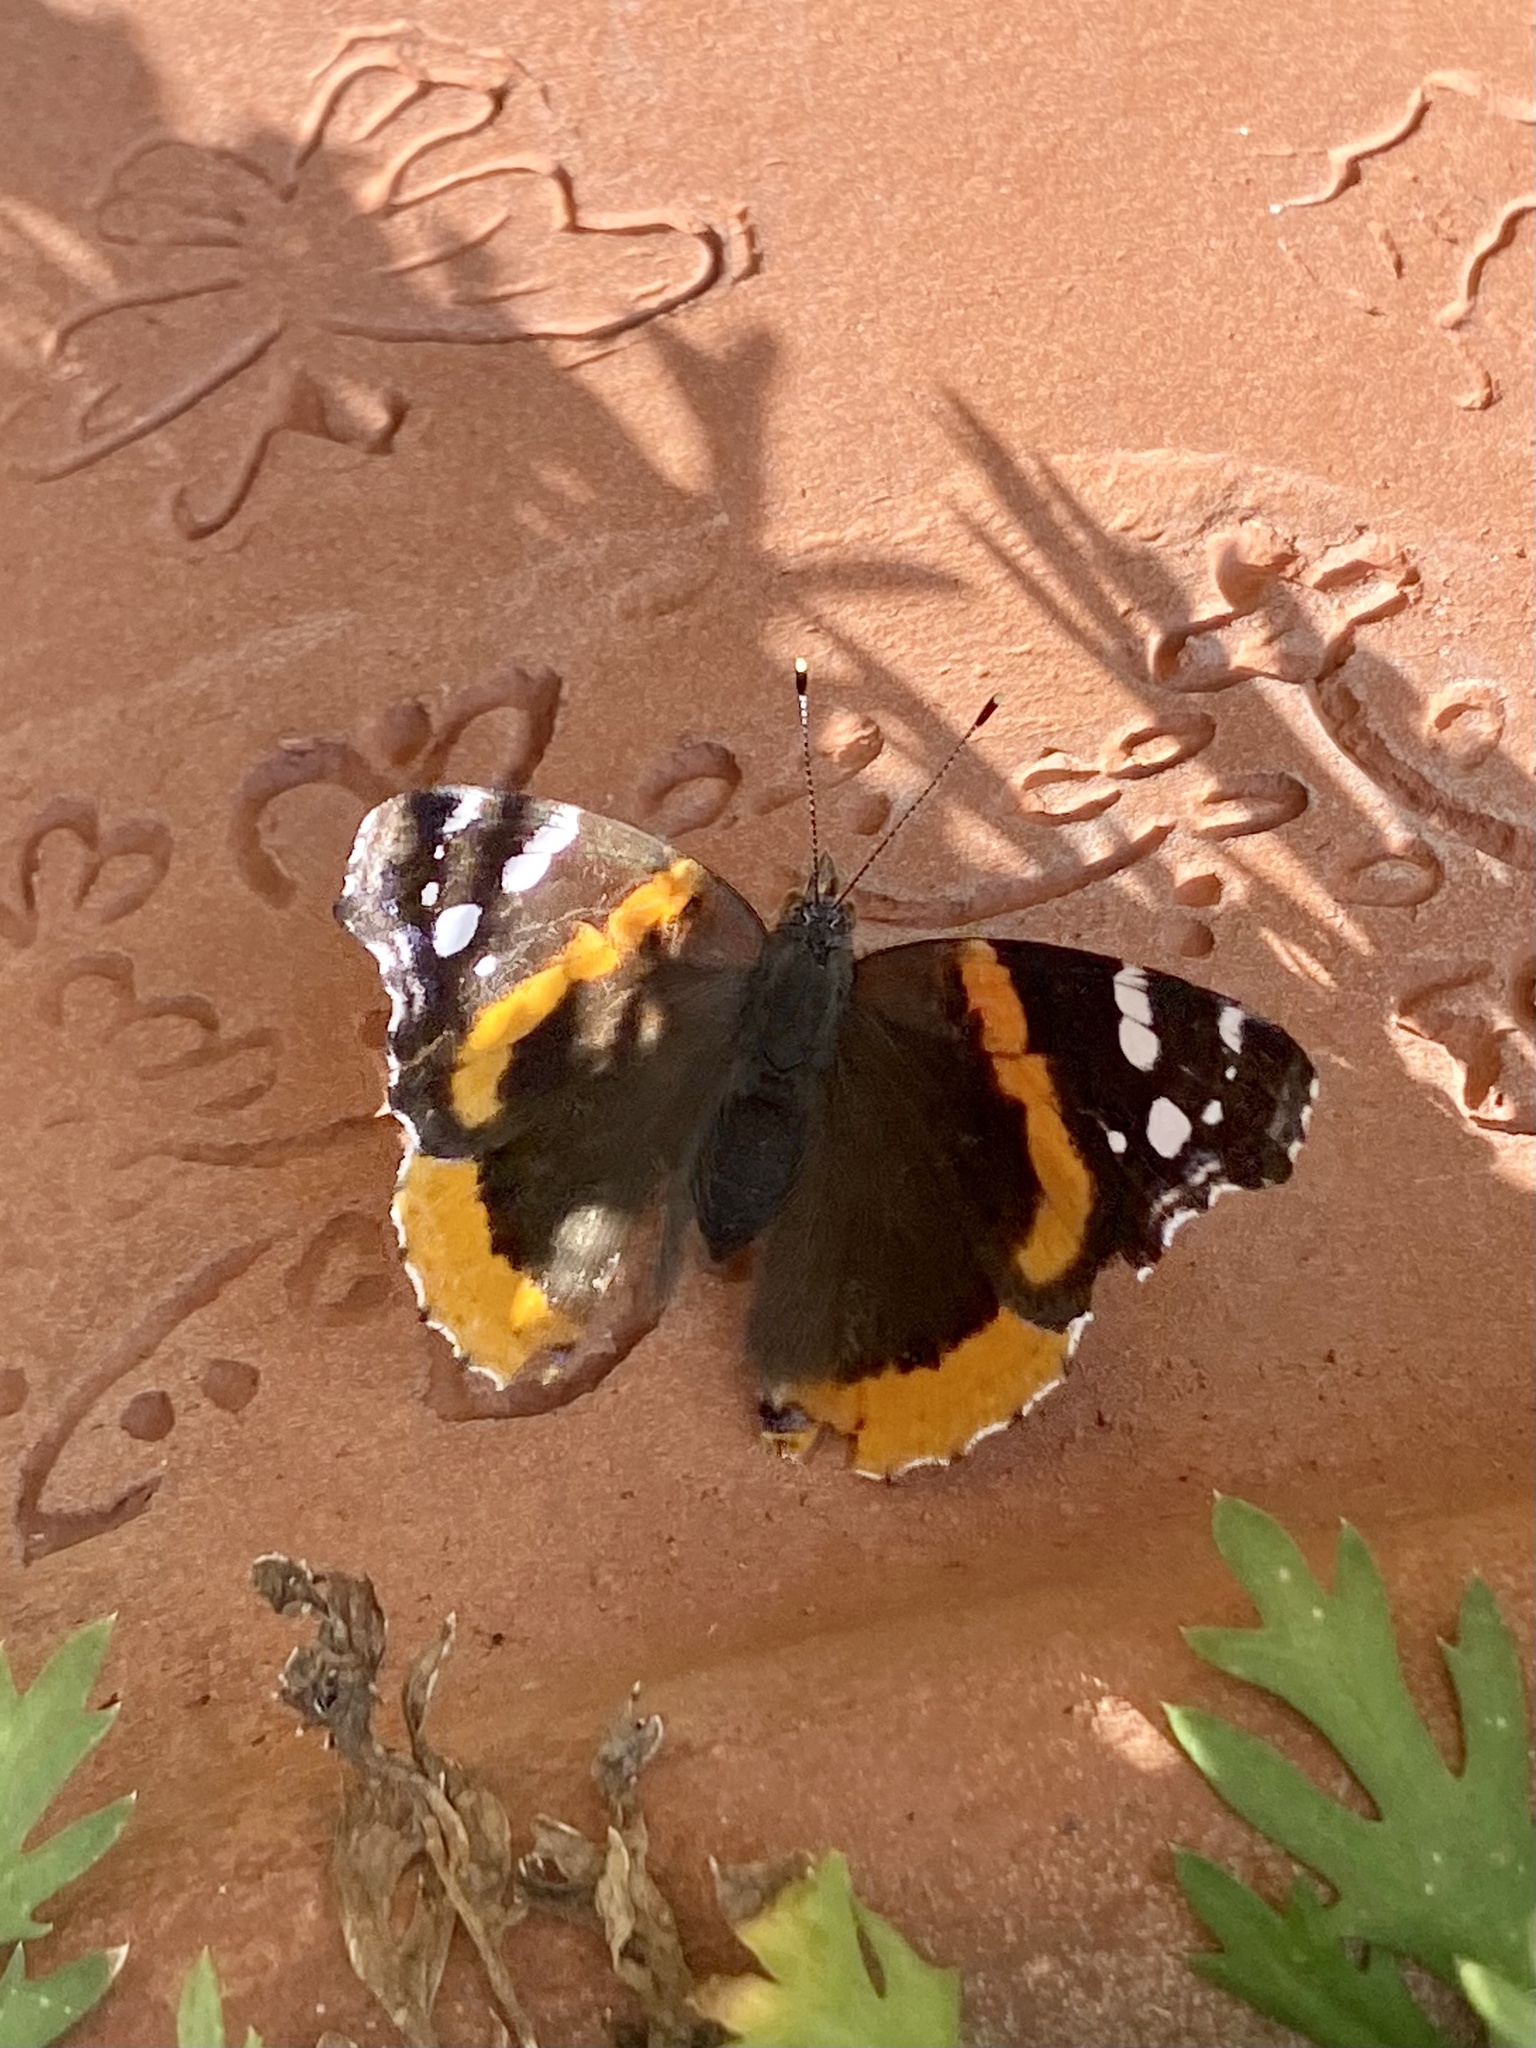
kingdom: Animalia
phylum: Arthropoda
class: Insecta
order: Lepidoptera
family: Nymphalidae
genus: Vanessa
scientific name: Vanessa atalanta
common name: Red admiral
